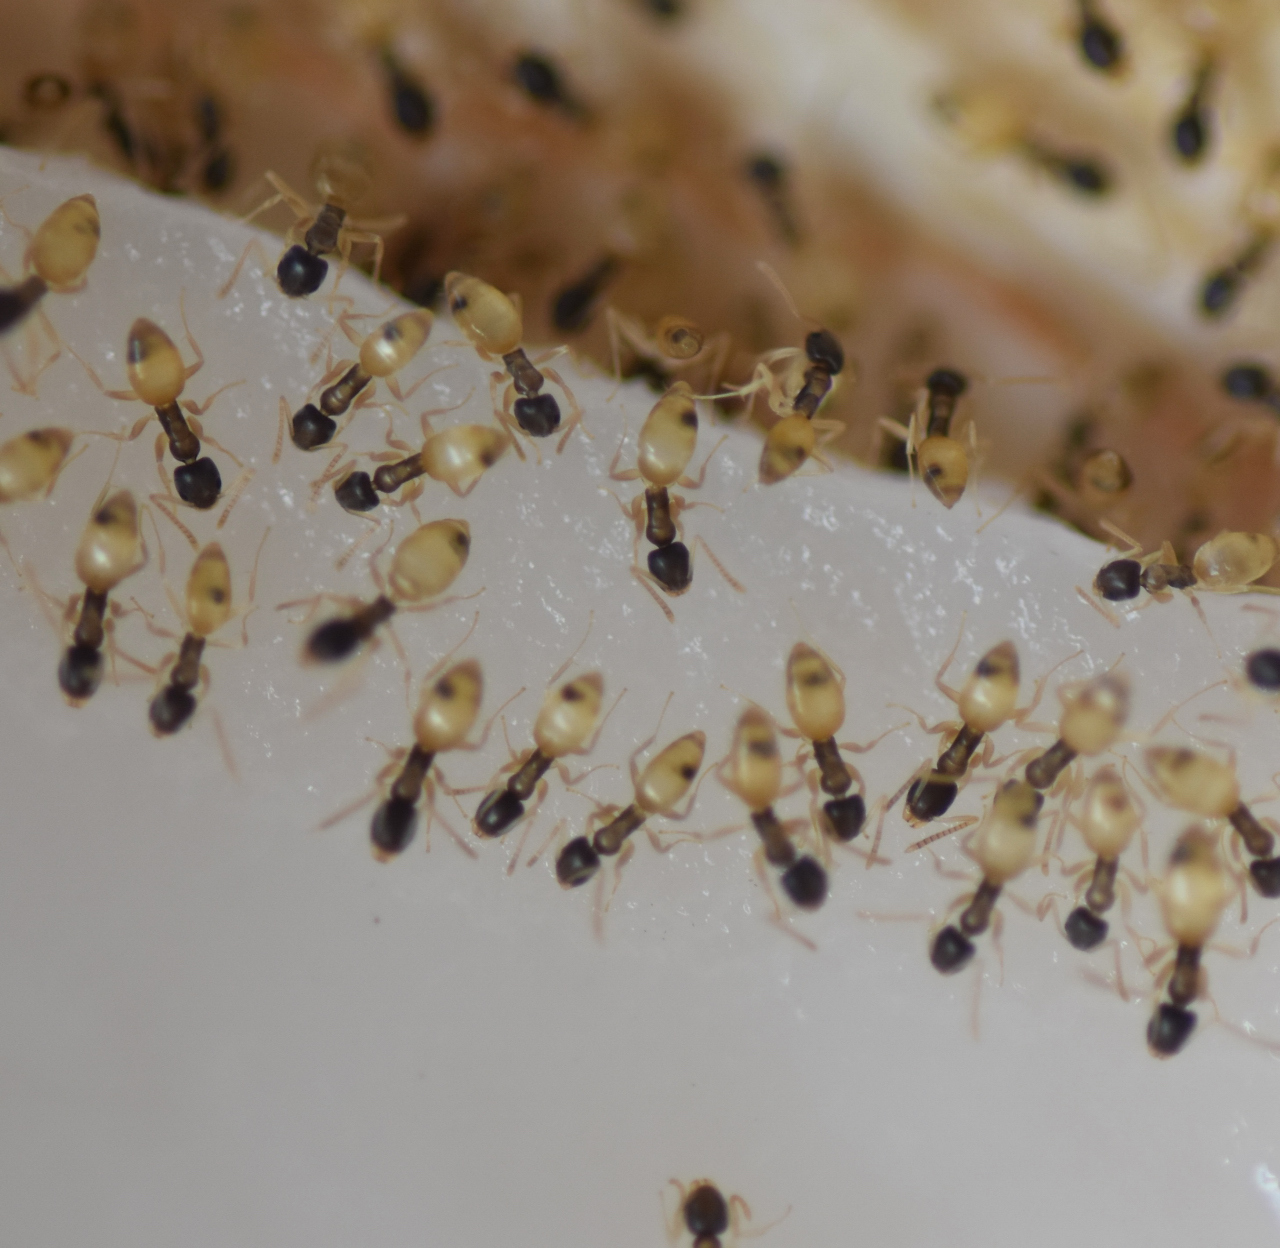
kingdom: Animalia
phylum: Arthropoda
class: Insecta
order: Hymenoptera
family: Formicidae
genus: Tapinoma
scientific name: Tapinoma melanocephalum
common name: Ghost ant
